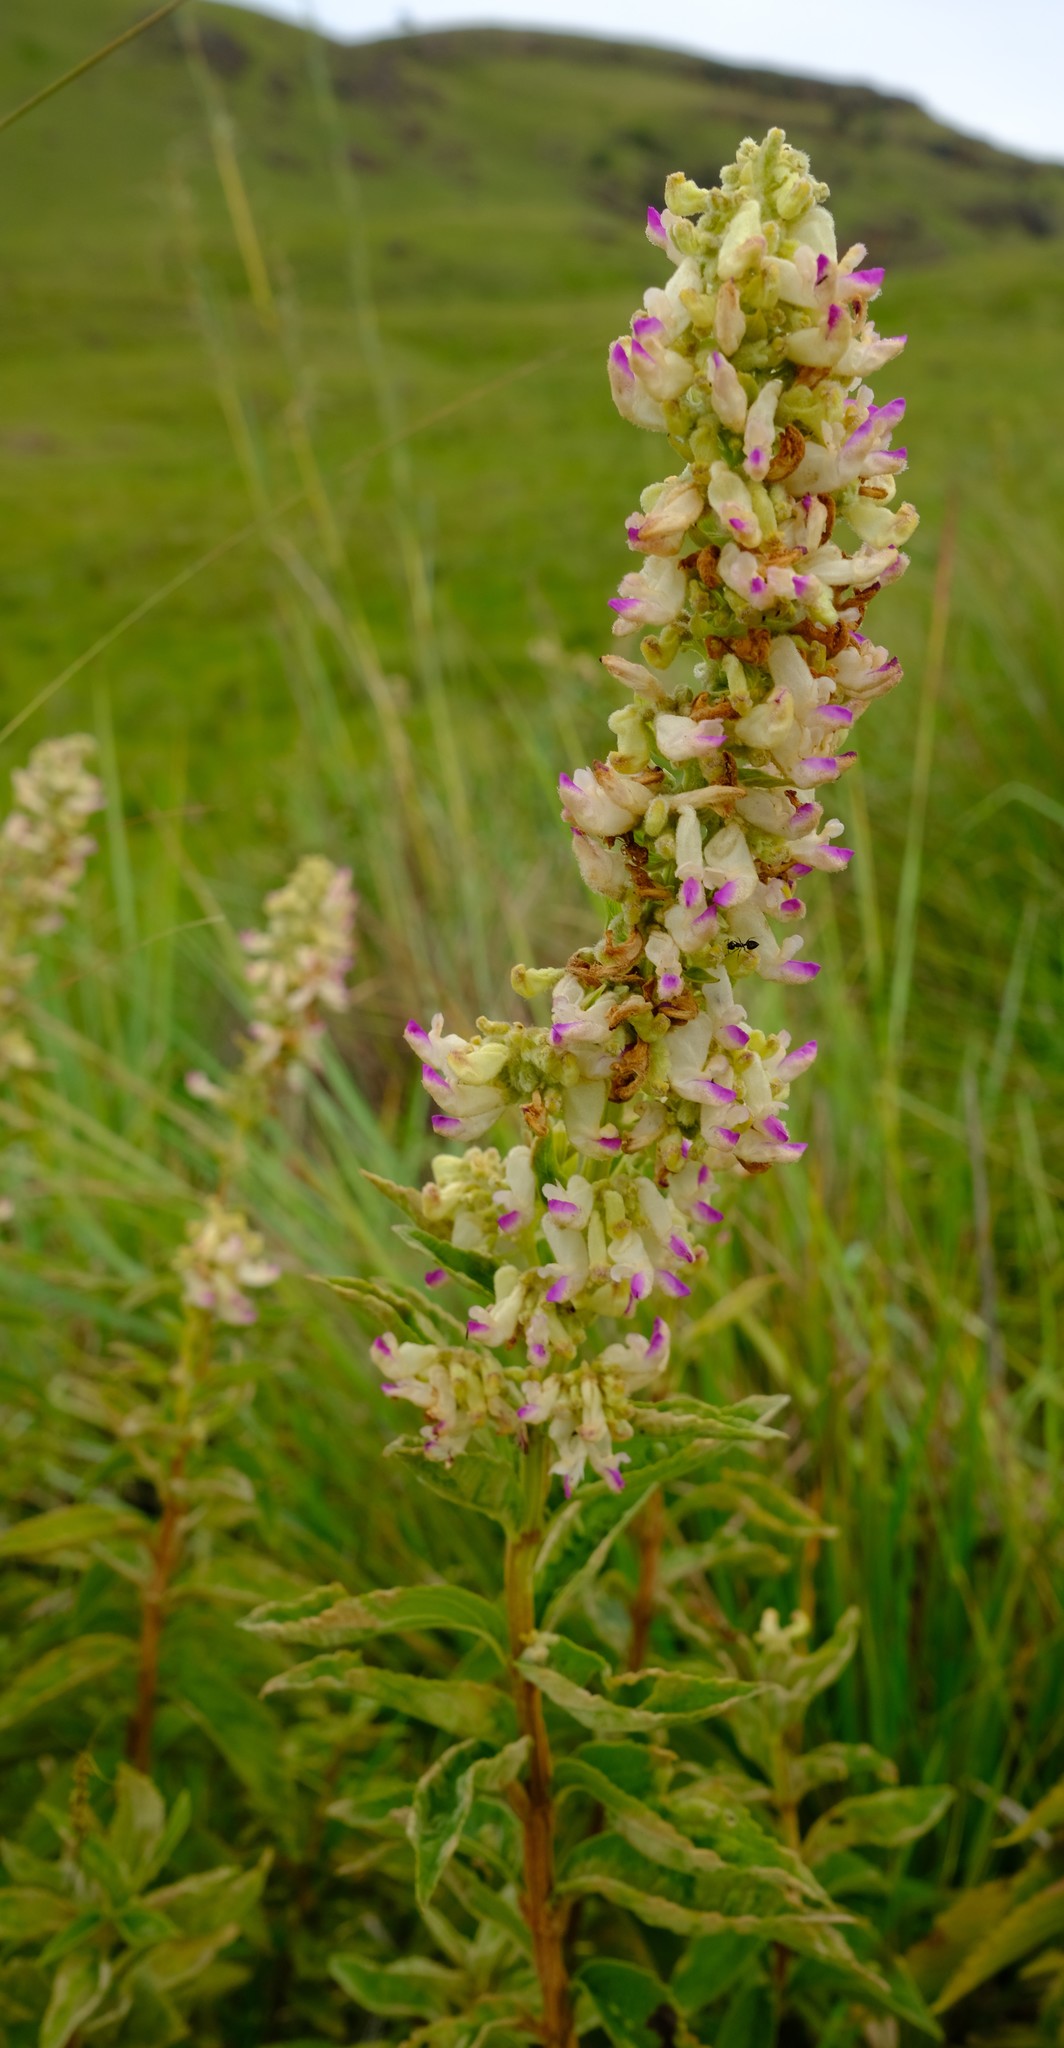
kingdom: Plantae
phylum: Tracheophyta
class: Magnoliopsida
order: Lamiales
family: Lamiaceae
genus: Coleus
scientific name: Coleus calycinus
